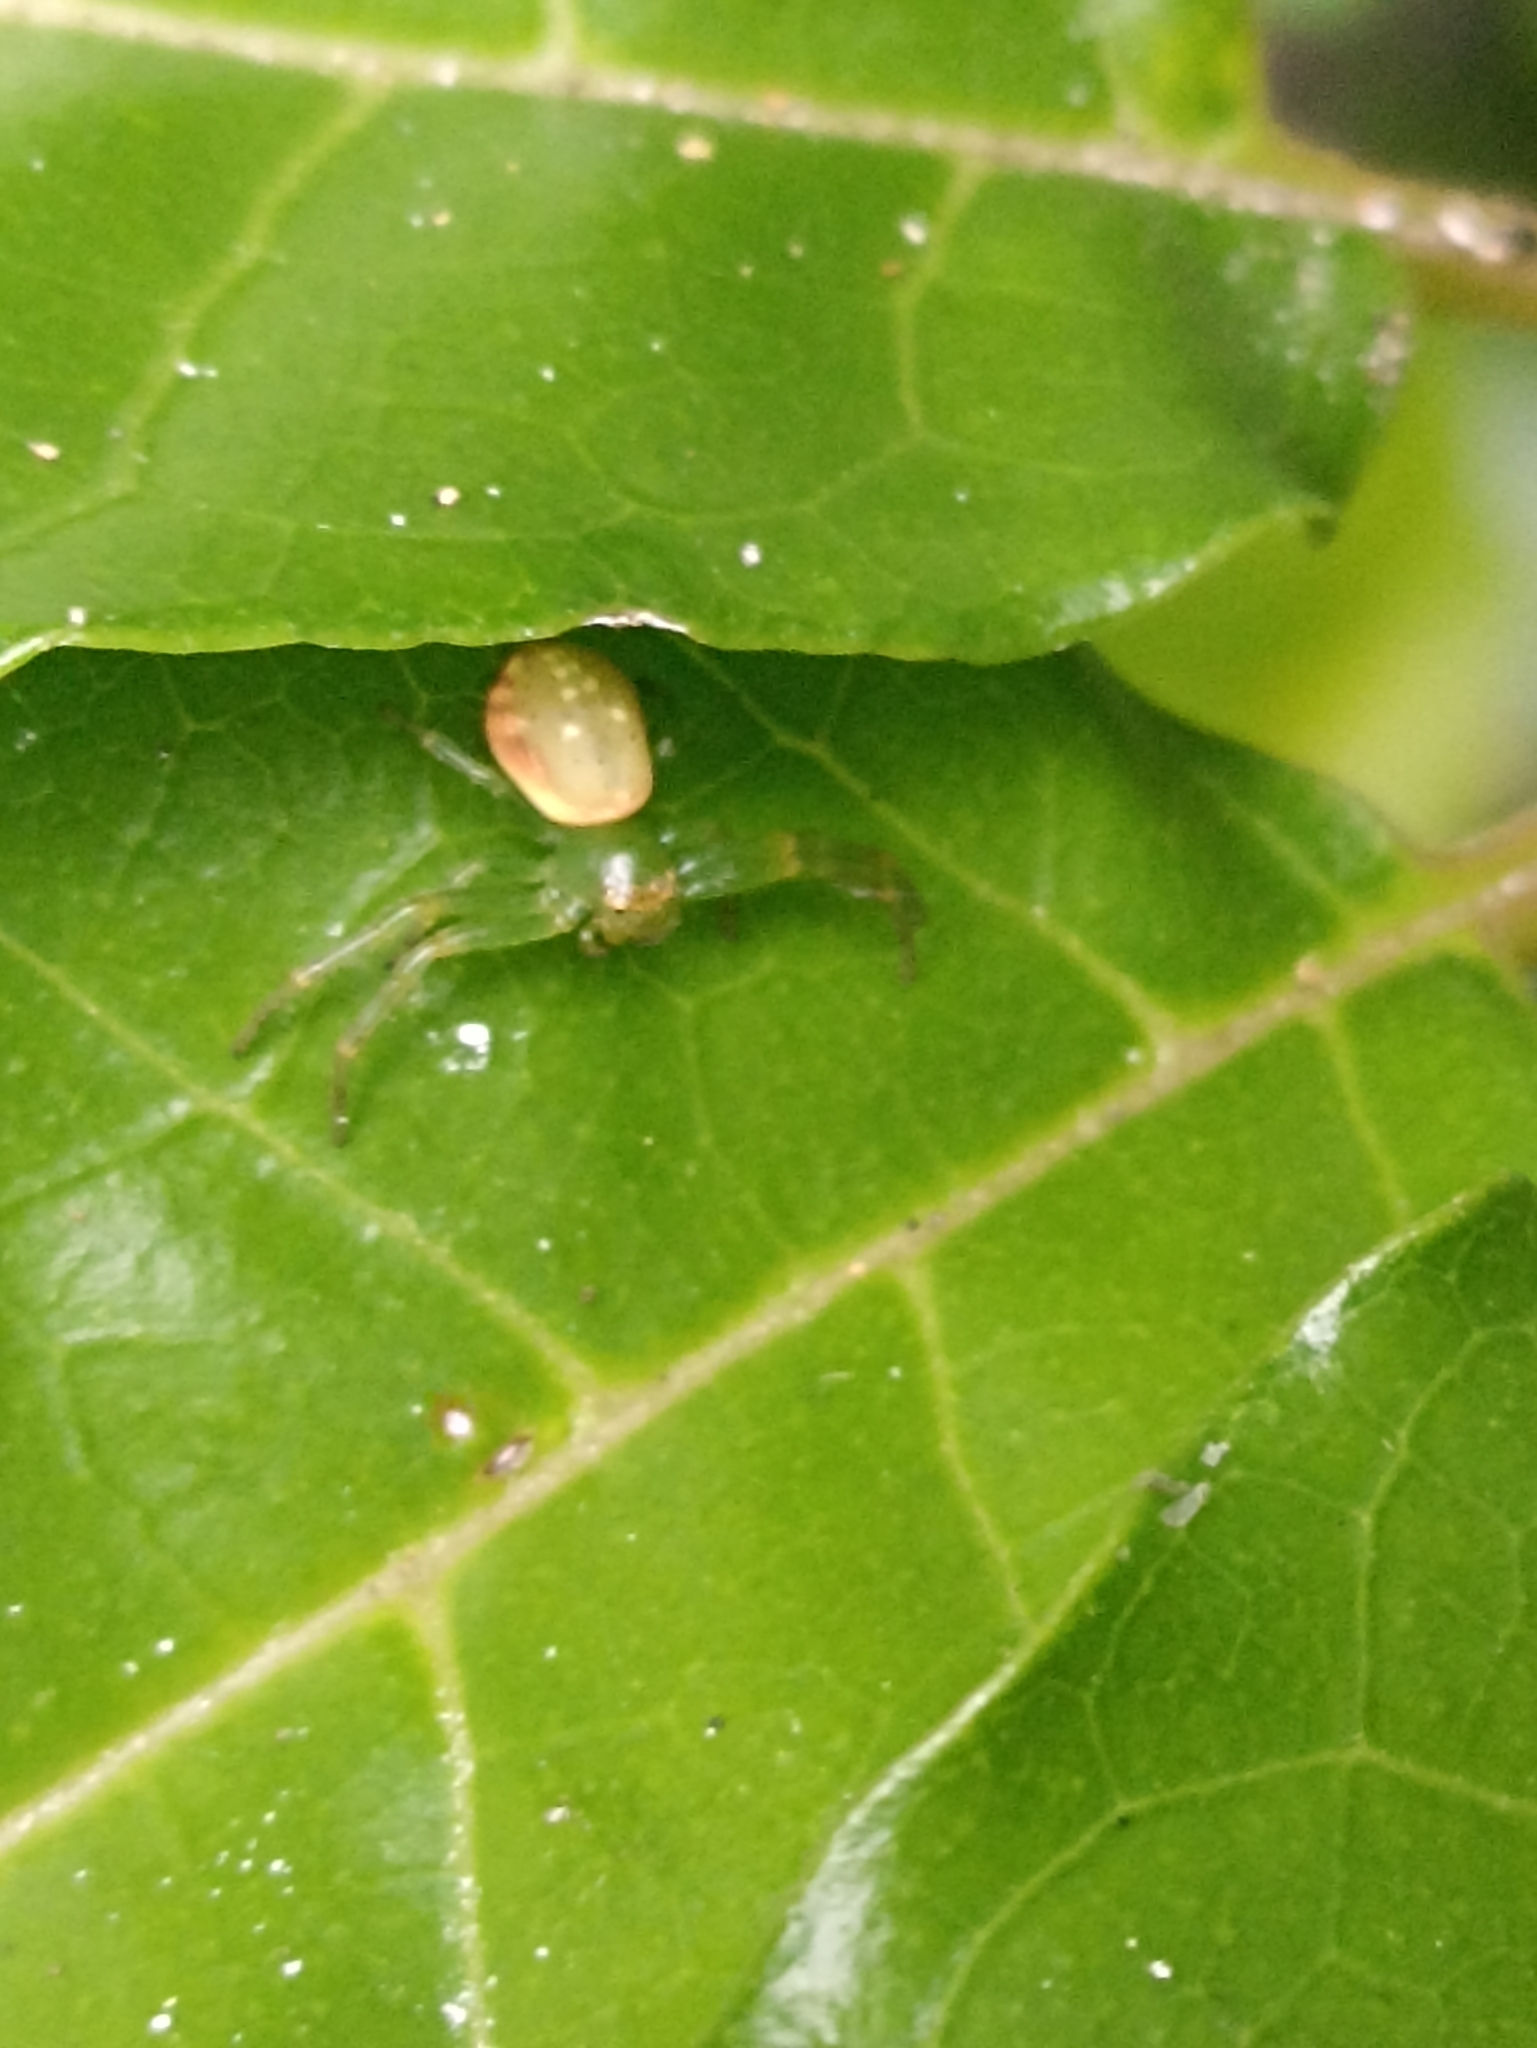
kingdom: Animalia
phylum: Arthropoda
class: Arachnida
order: Araneae
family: Thomisidae
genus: Diaea
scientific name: Diaea ambara
